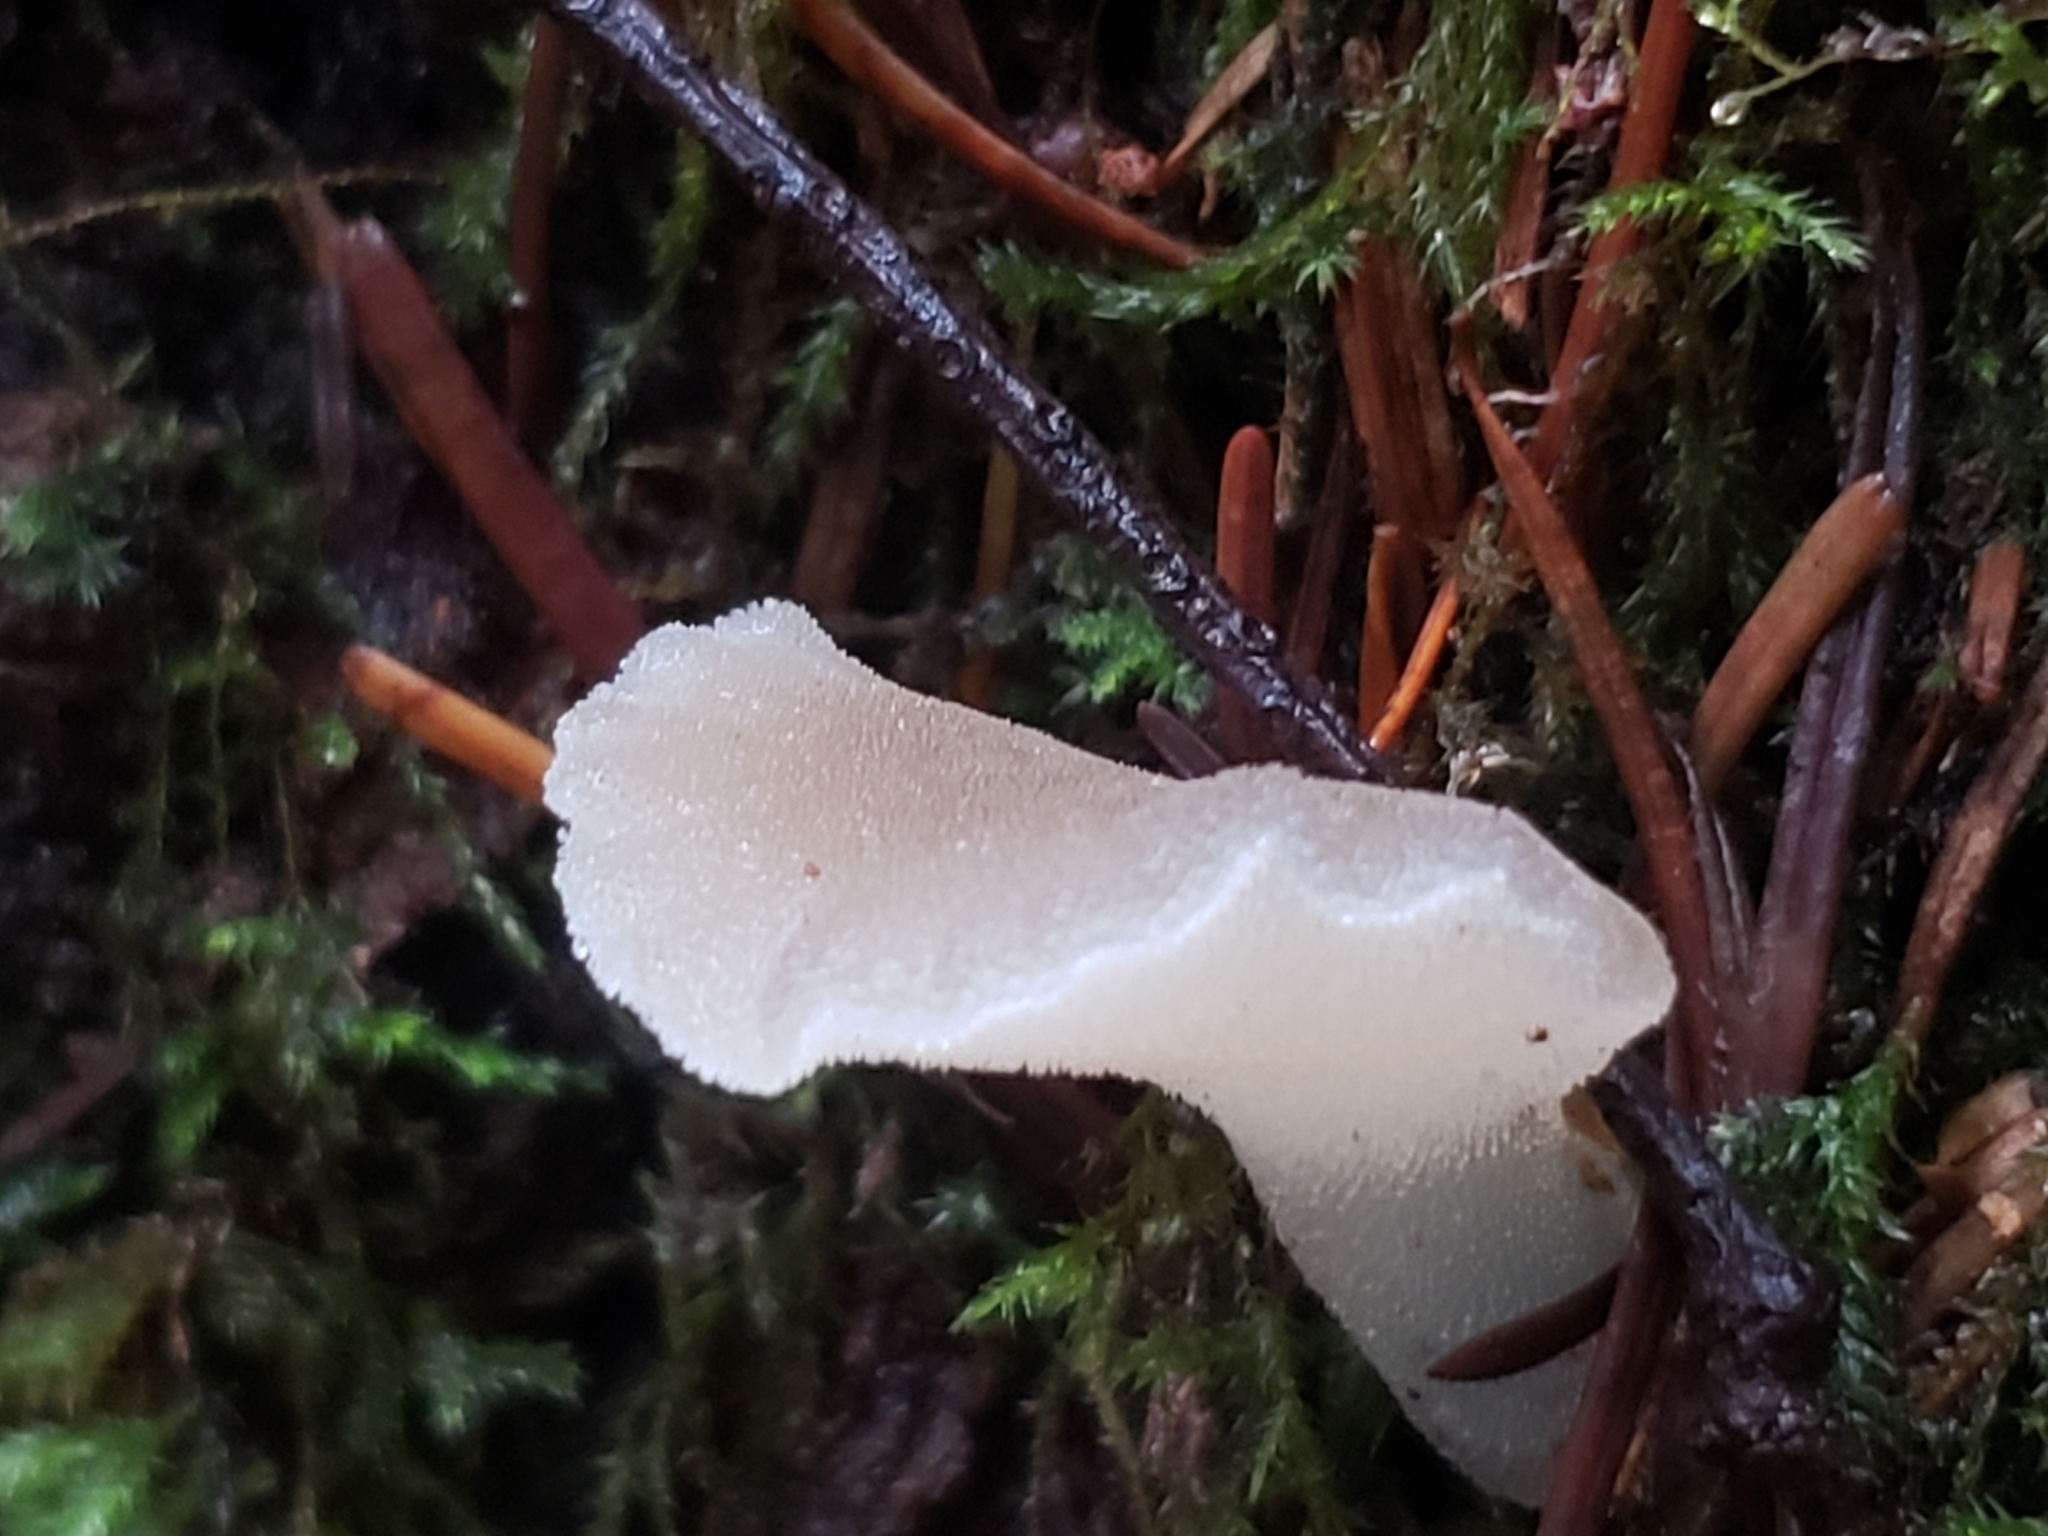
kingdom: Fungi
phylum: Basidiomycota
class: Agaricomycetes
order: Auriculariales
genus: Pseudohydnum
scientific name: Pseudohydnum gelatinosum
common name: Jelly tongue
